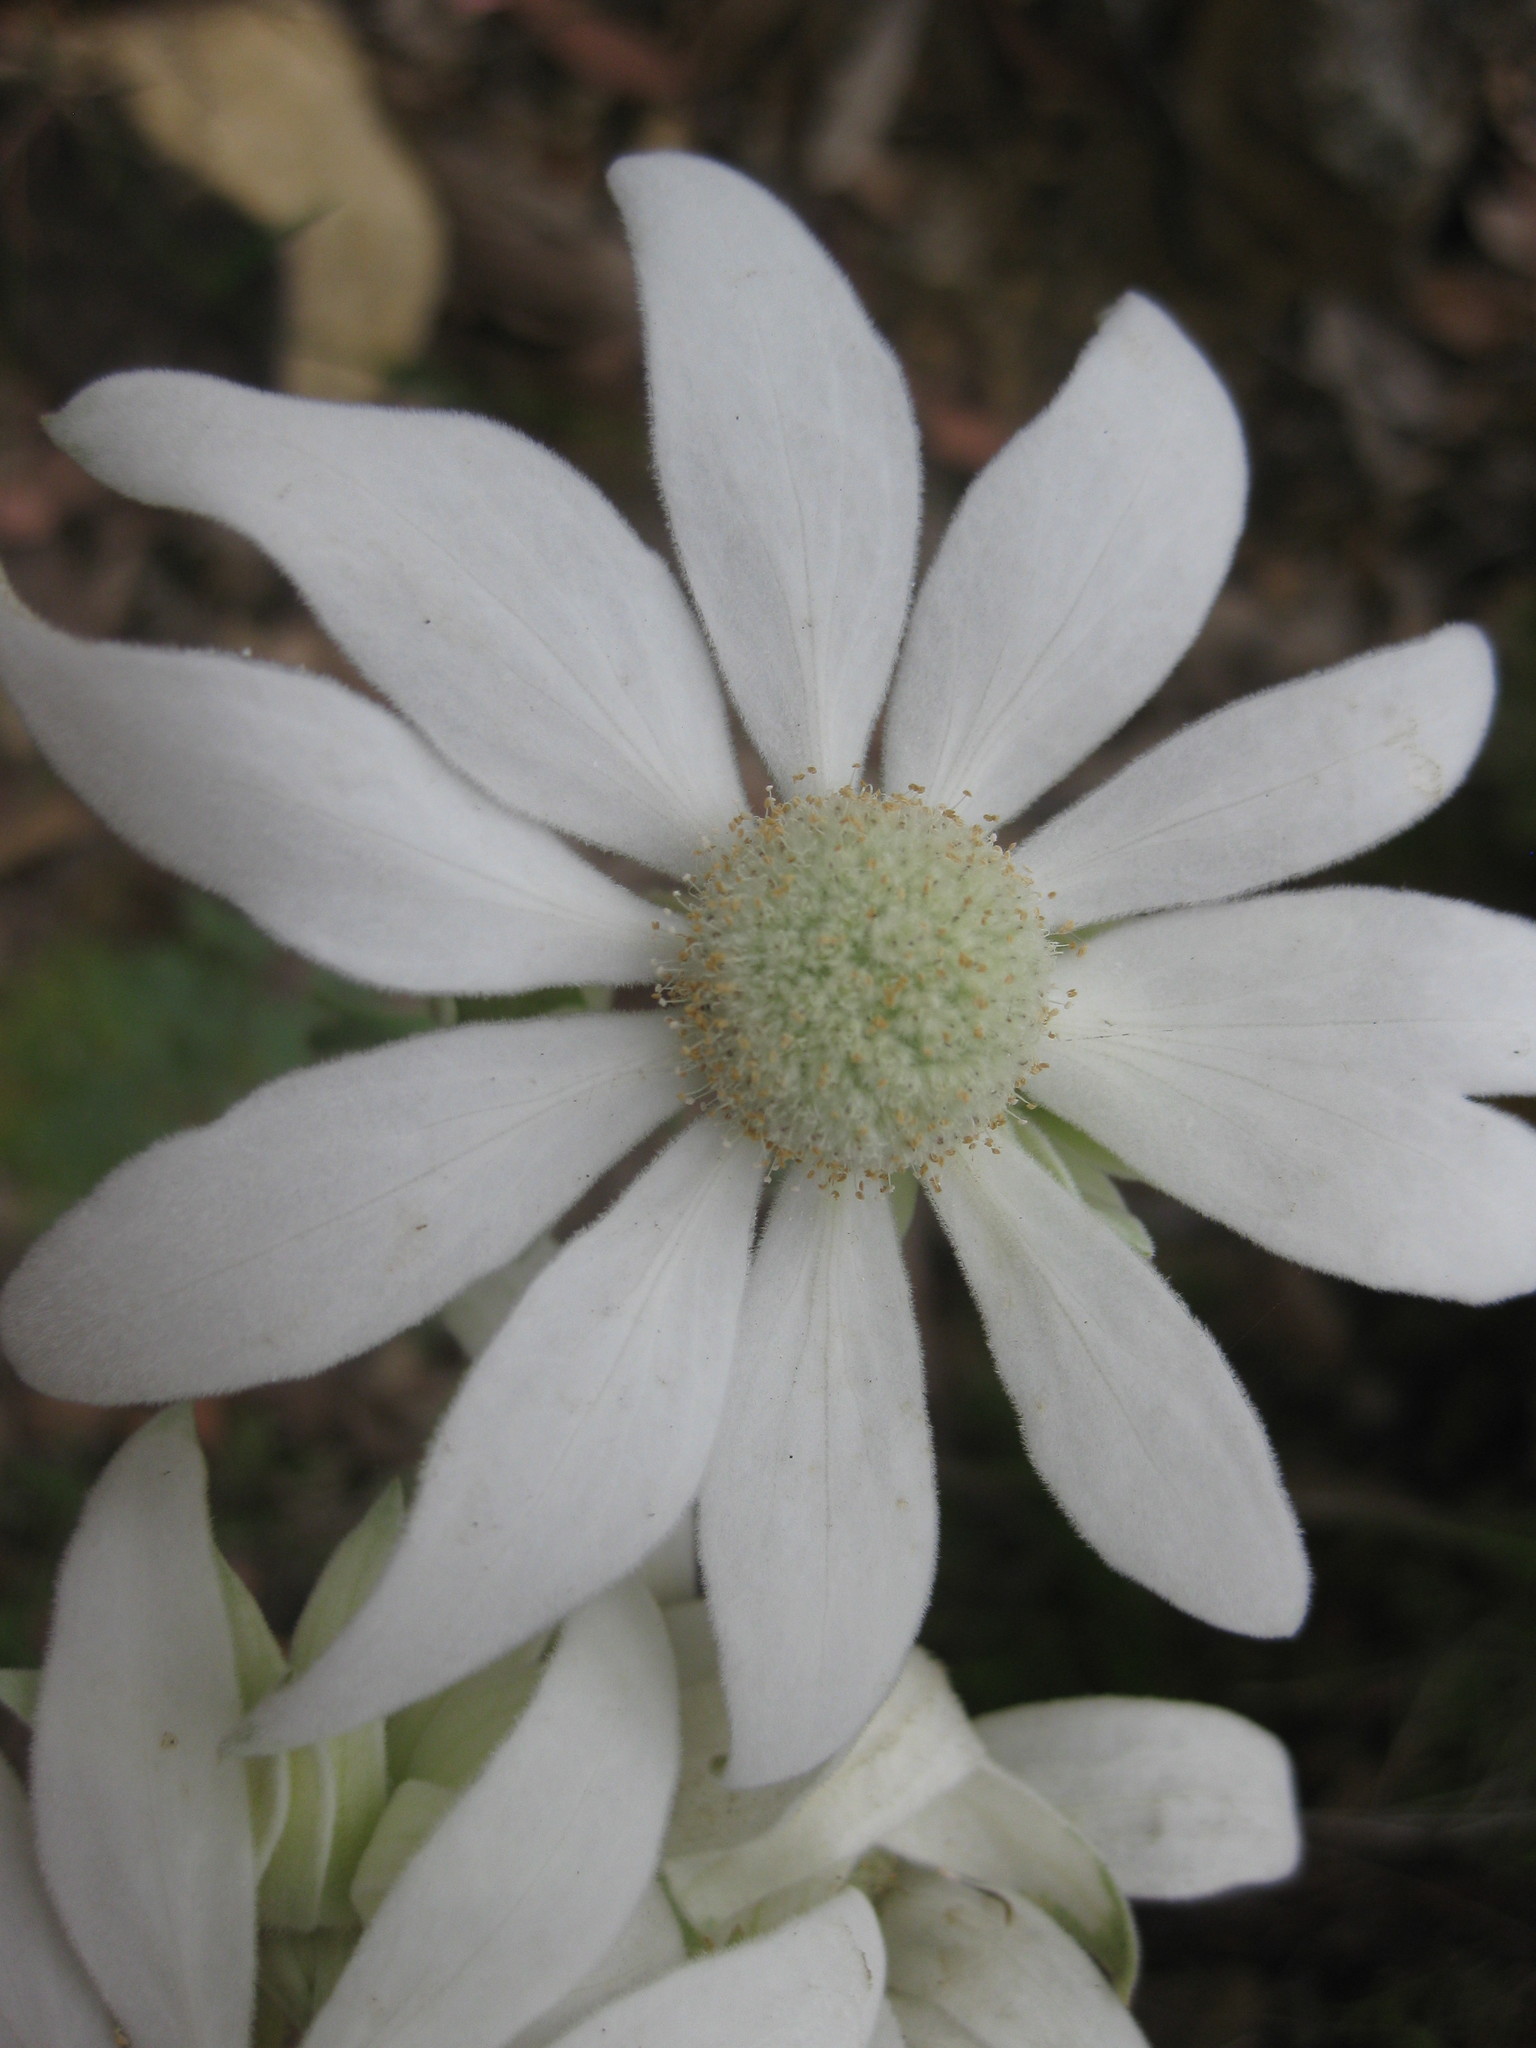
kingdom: Plantae
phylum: Tracheophyta
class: Magnoliopsida
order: Apiales
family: Apiaceae
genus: Actinotus
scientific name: Actinotus helianthi
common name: Flannel-flower
